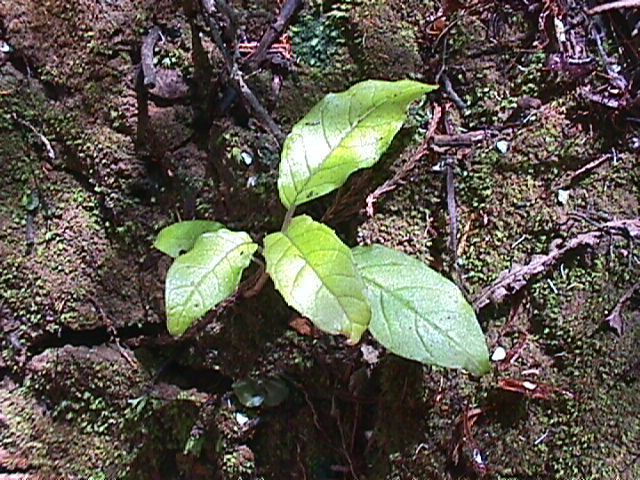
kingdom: Plantae
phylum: Tracheophyta
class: Magnoliopsida
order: Myrtales
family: Onagraceae
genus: Fuchsia
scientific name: Fuchsia excorticata
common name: Tree fuchsia
